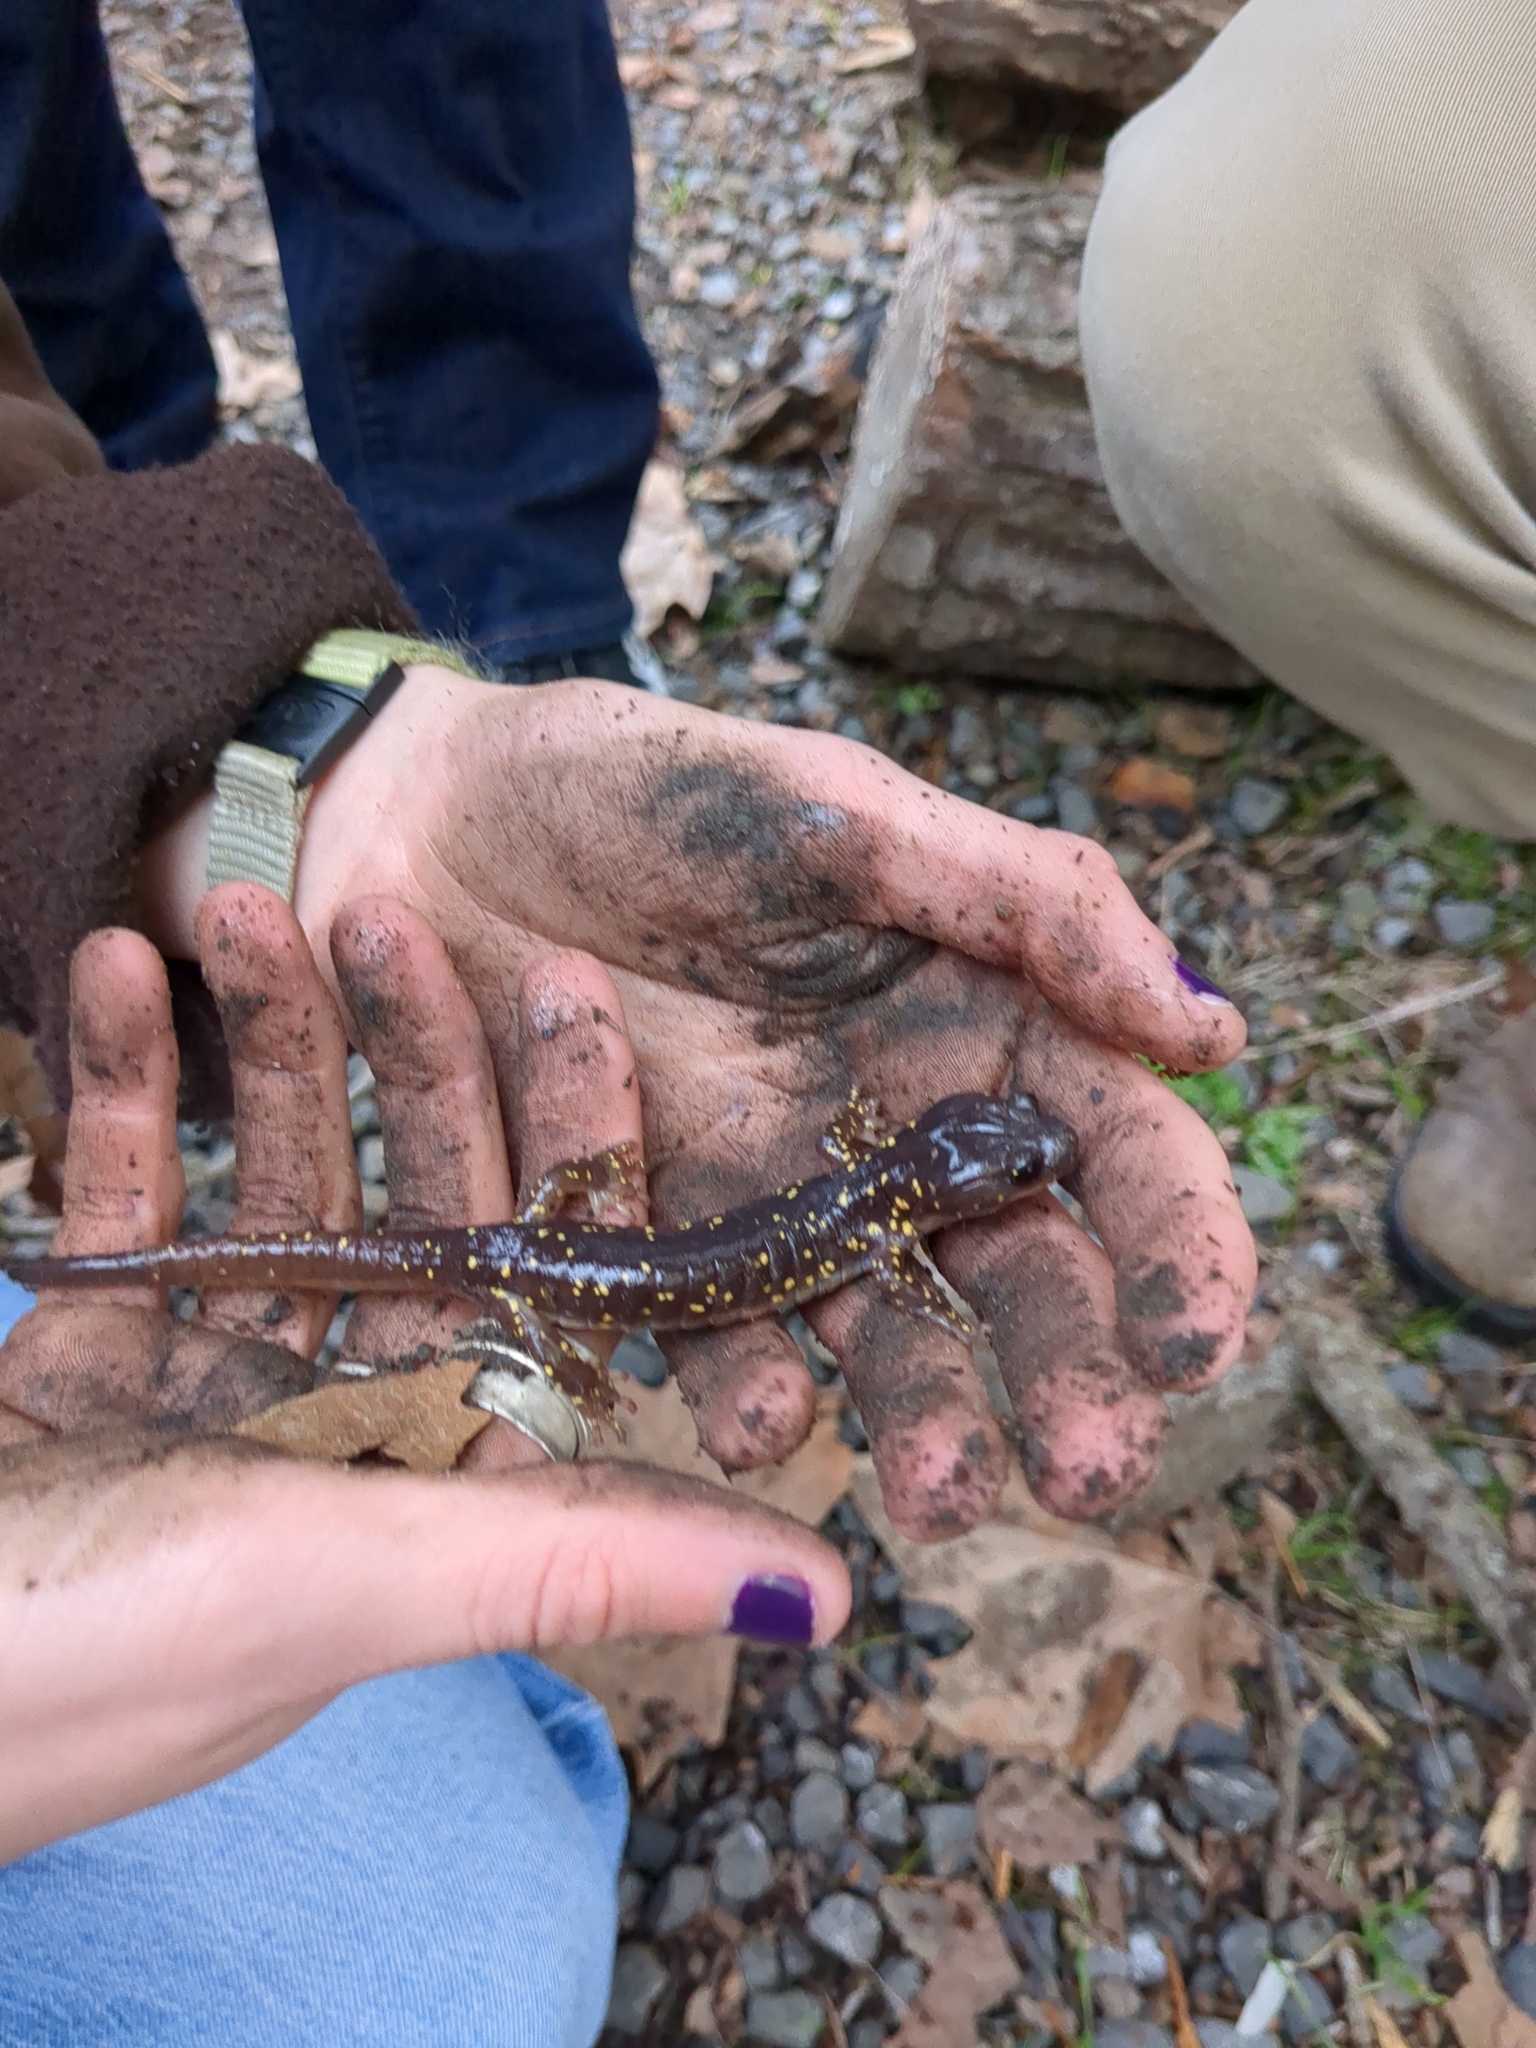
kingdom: Animalia
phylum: Chordata
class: Amphibia
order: Caudata
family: Plethodontidae
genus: Aneides
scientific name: Aneides lugubris
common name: Arboreal salamander
